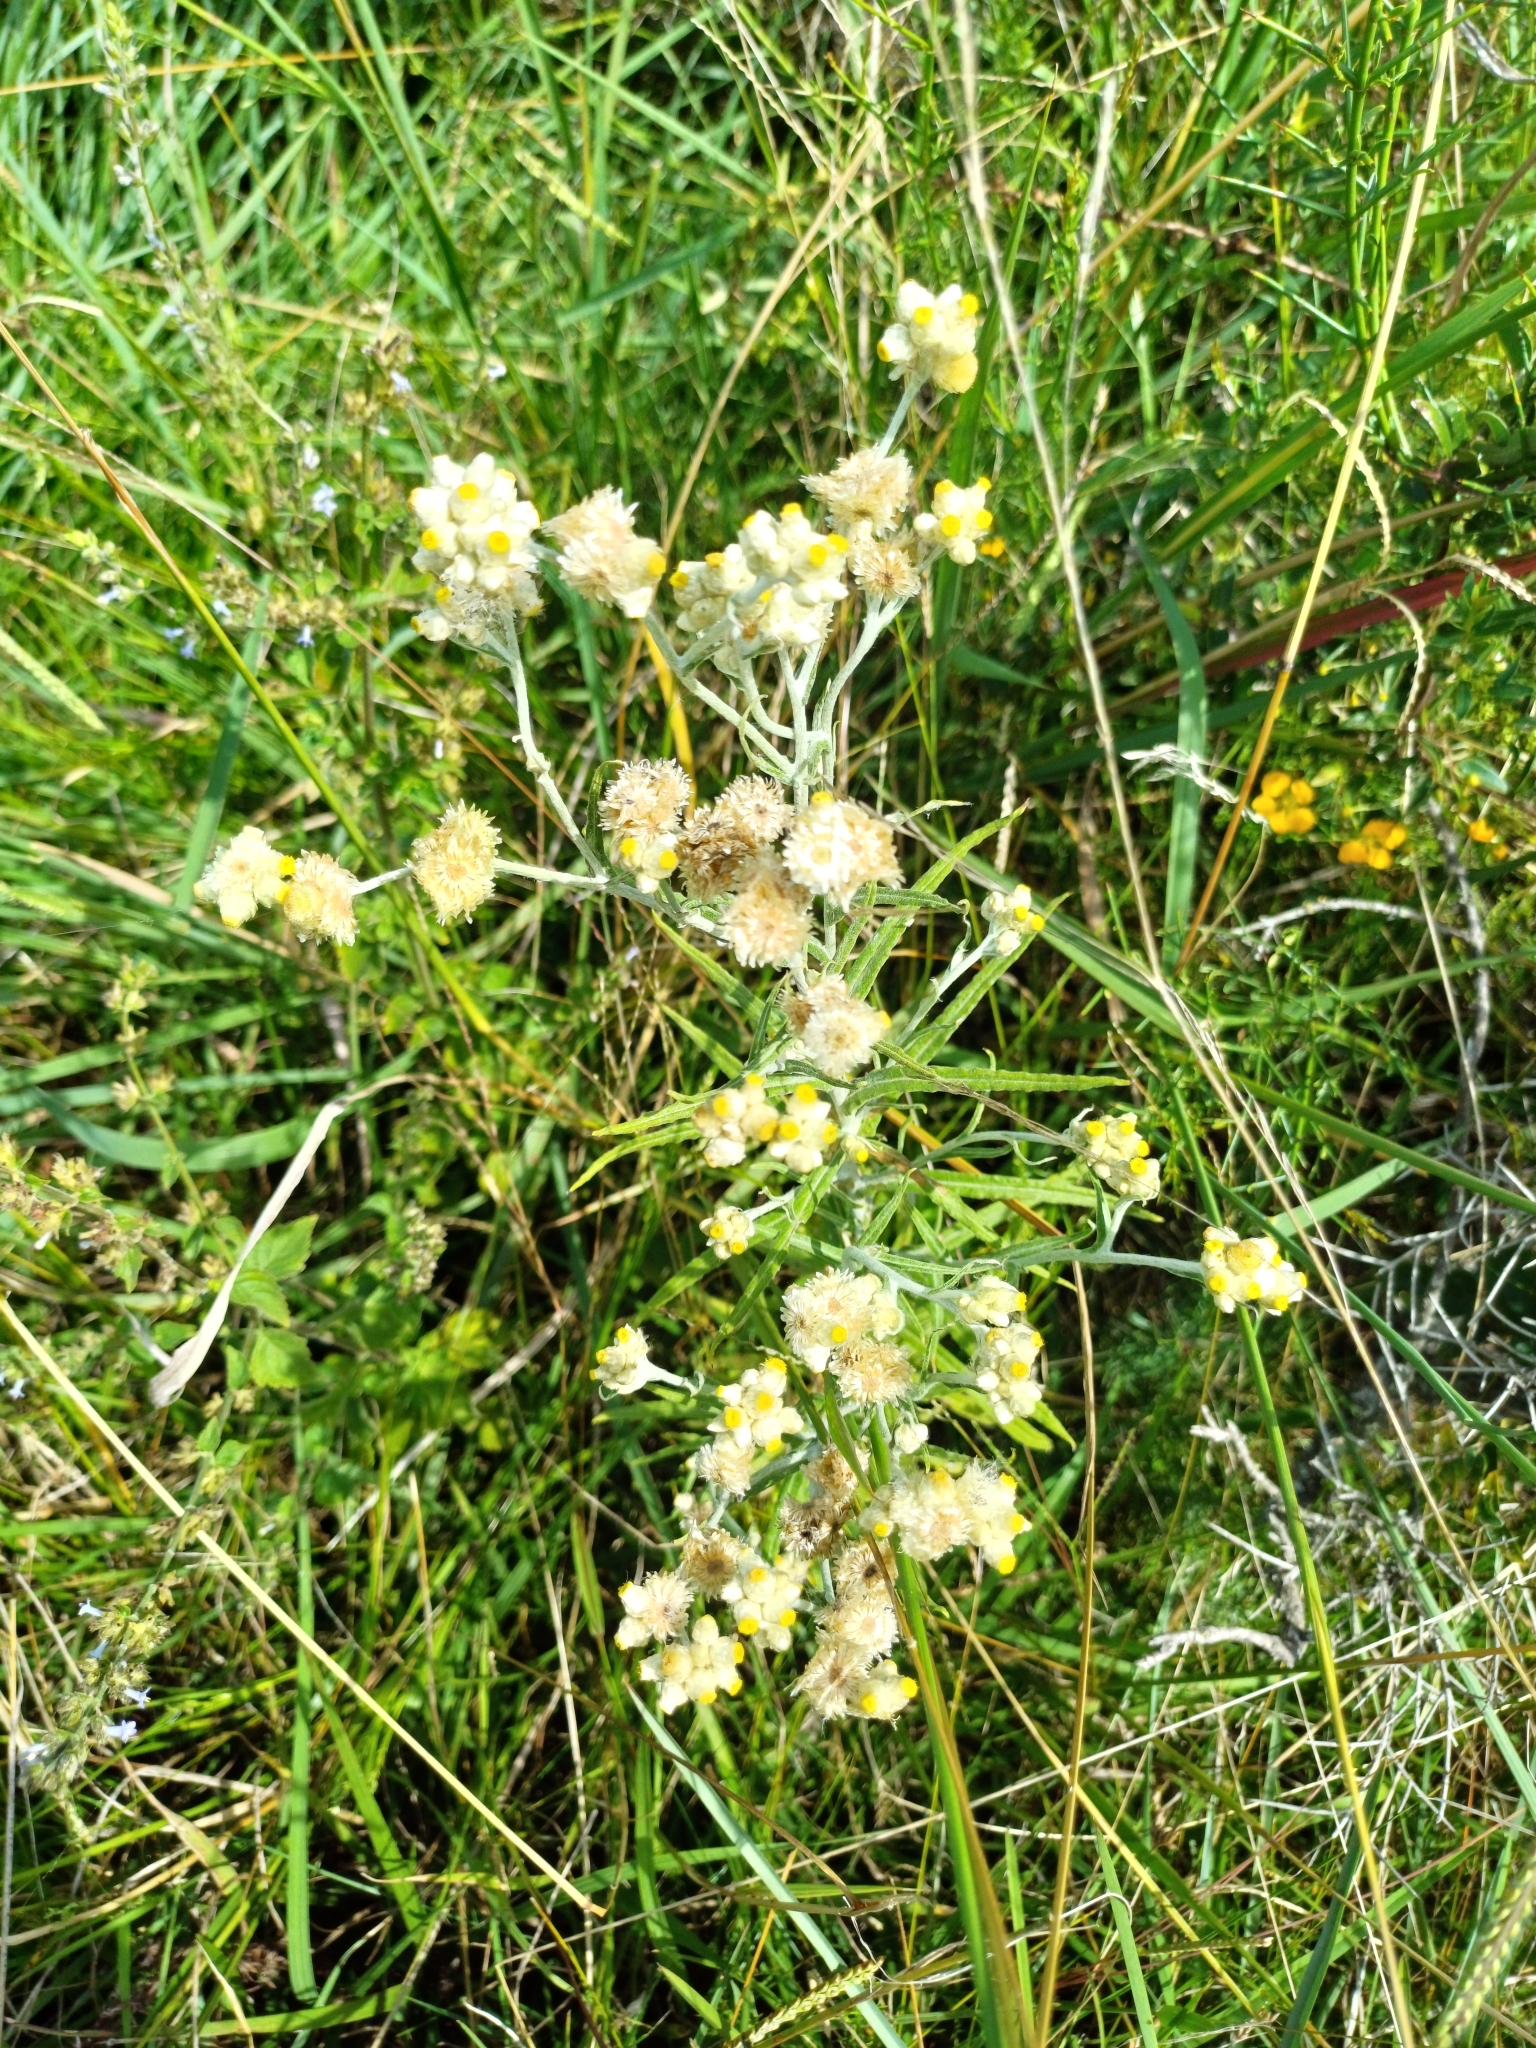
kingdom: Plantae
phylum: Tracheophyta
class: Magnoliopsida
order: Asterales
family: Asteraceae
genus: Pseudognaphalium
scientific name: Pseudognaphalium gaudichaudianum
